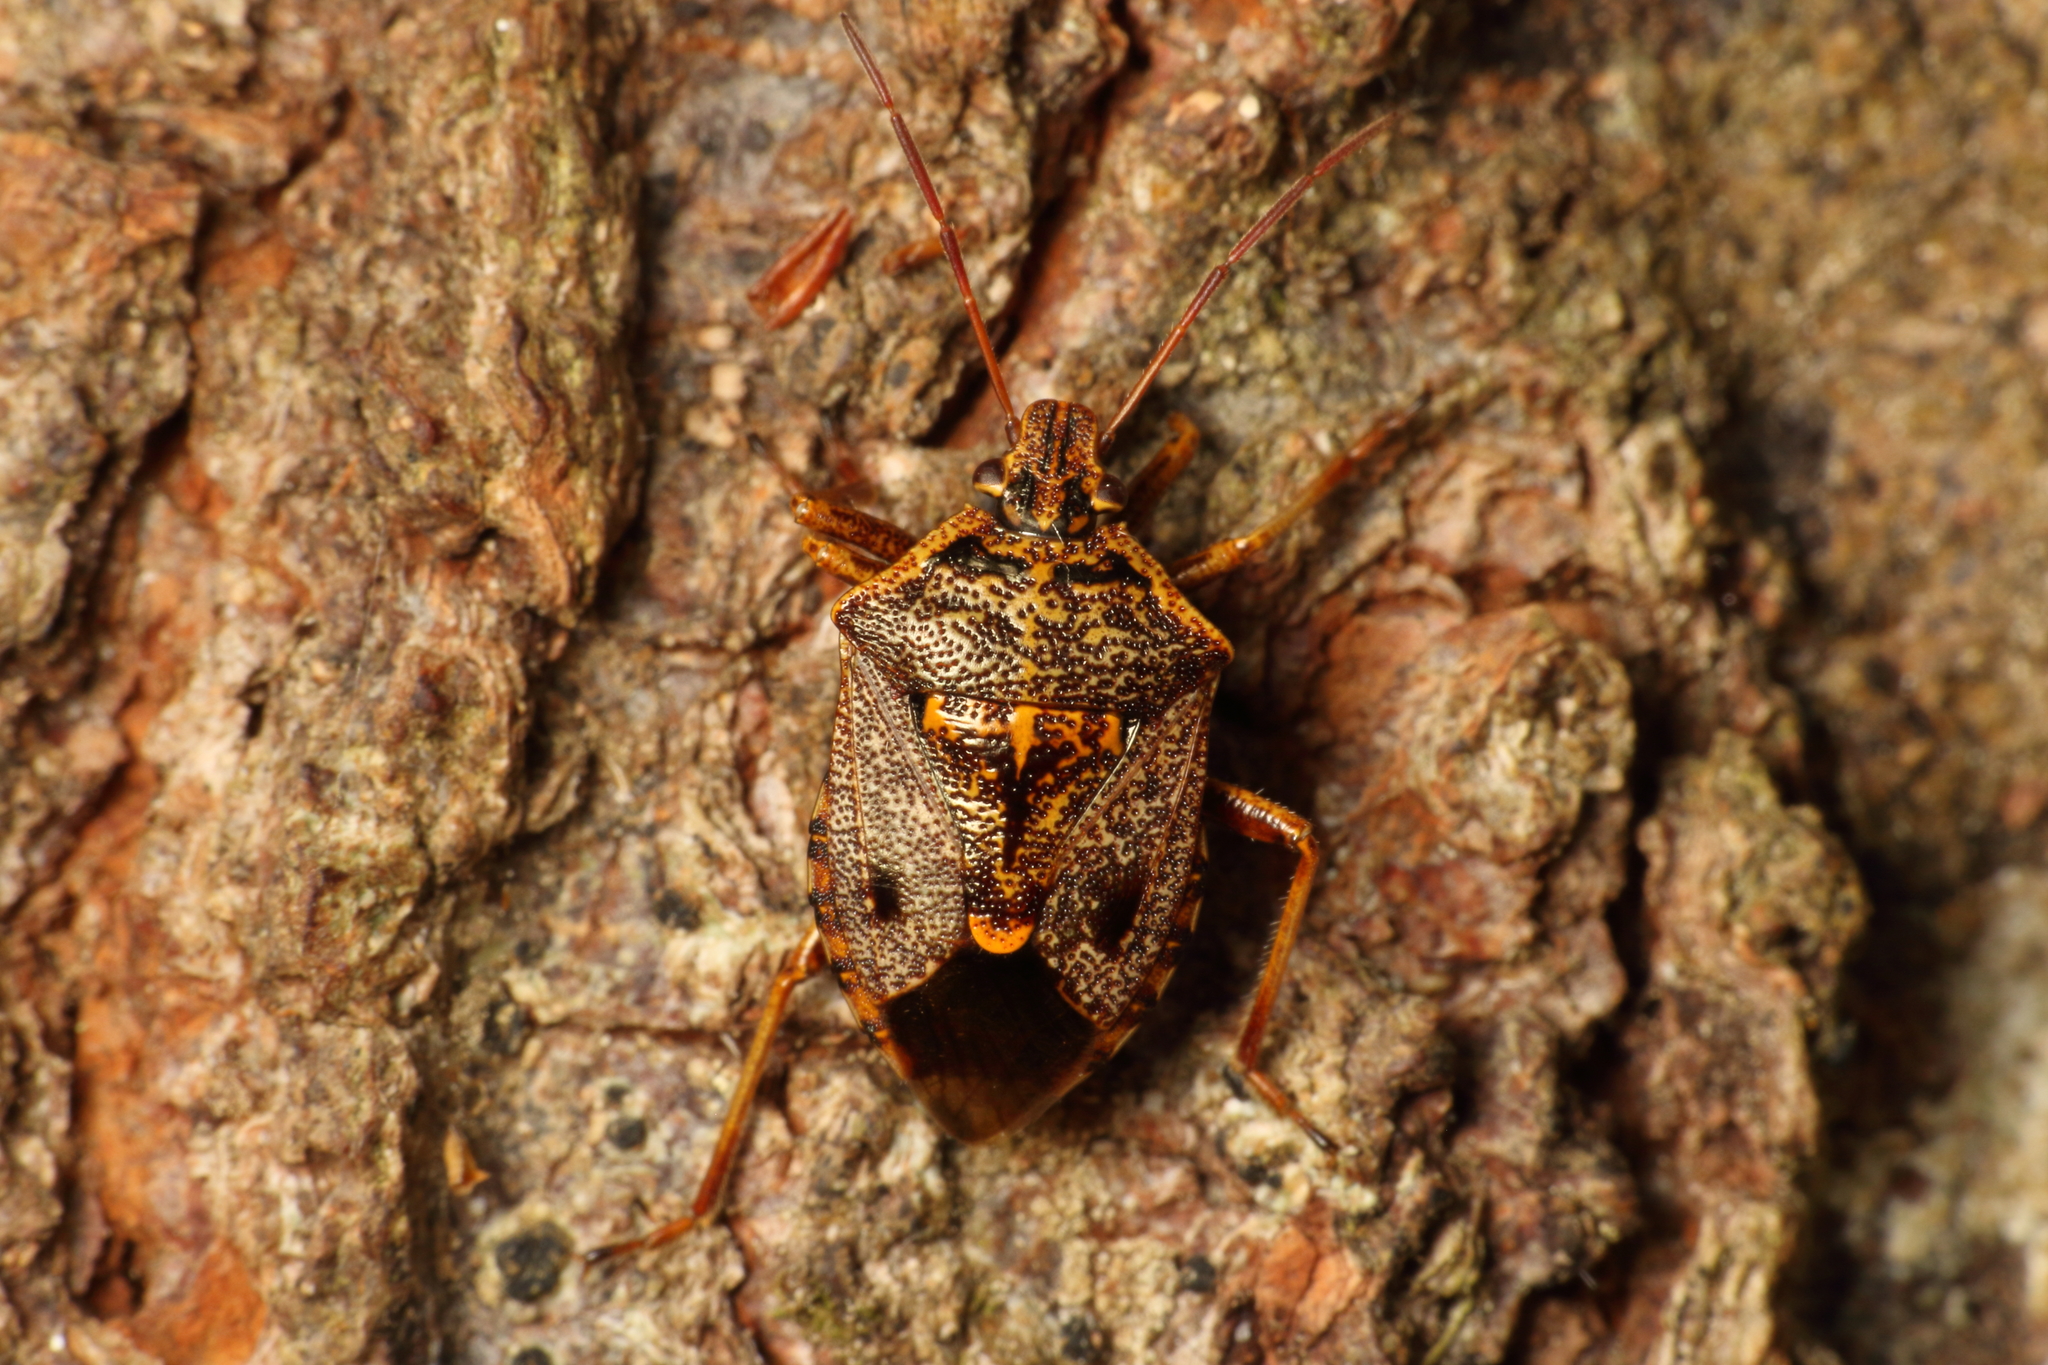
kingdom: Animalia
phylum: Arthropoda
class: Insecta
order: Hemiptera
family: Pentatomidae
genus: Cermatulus
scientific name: Cermatulus nasalis
